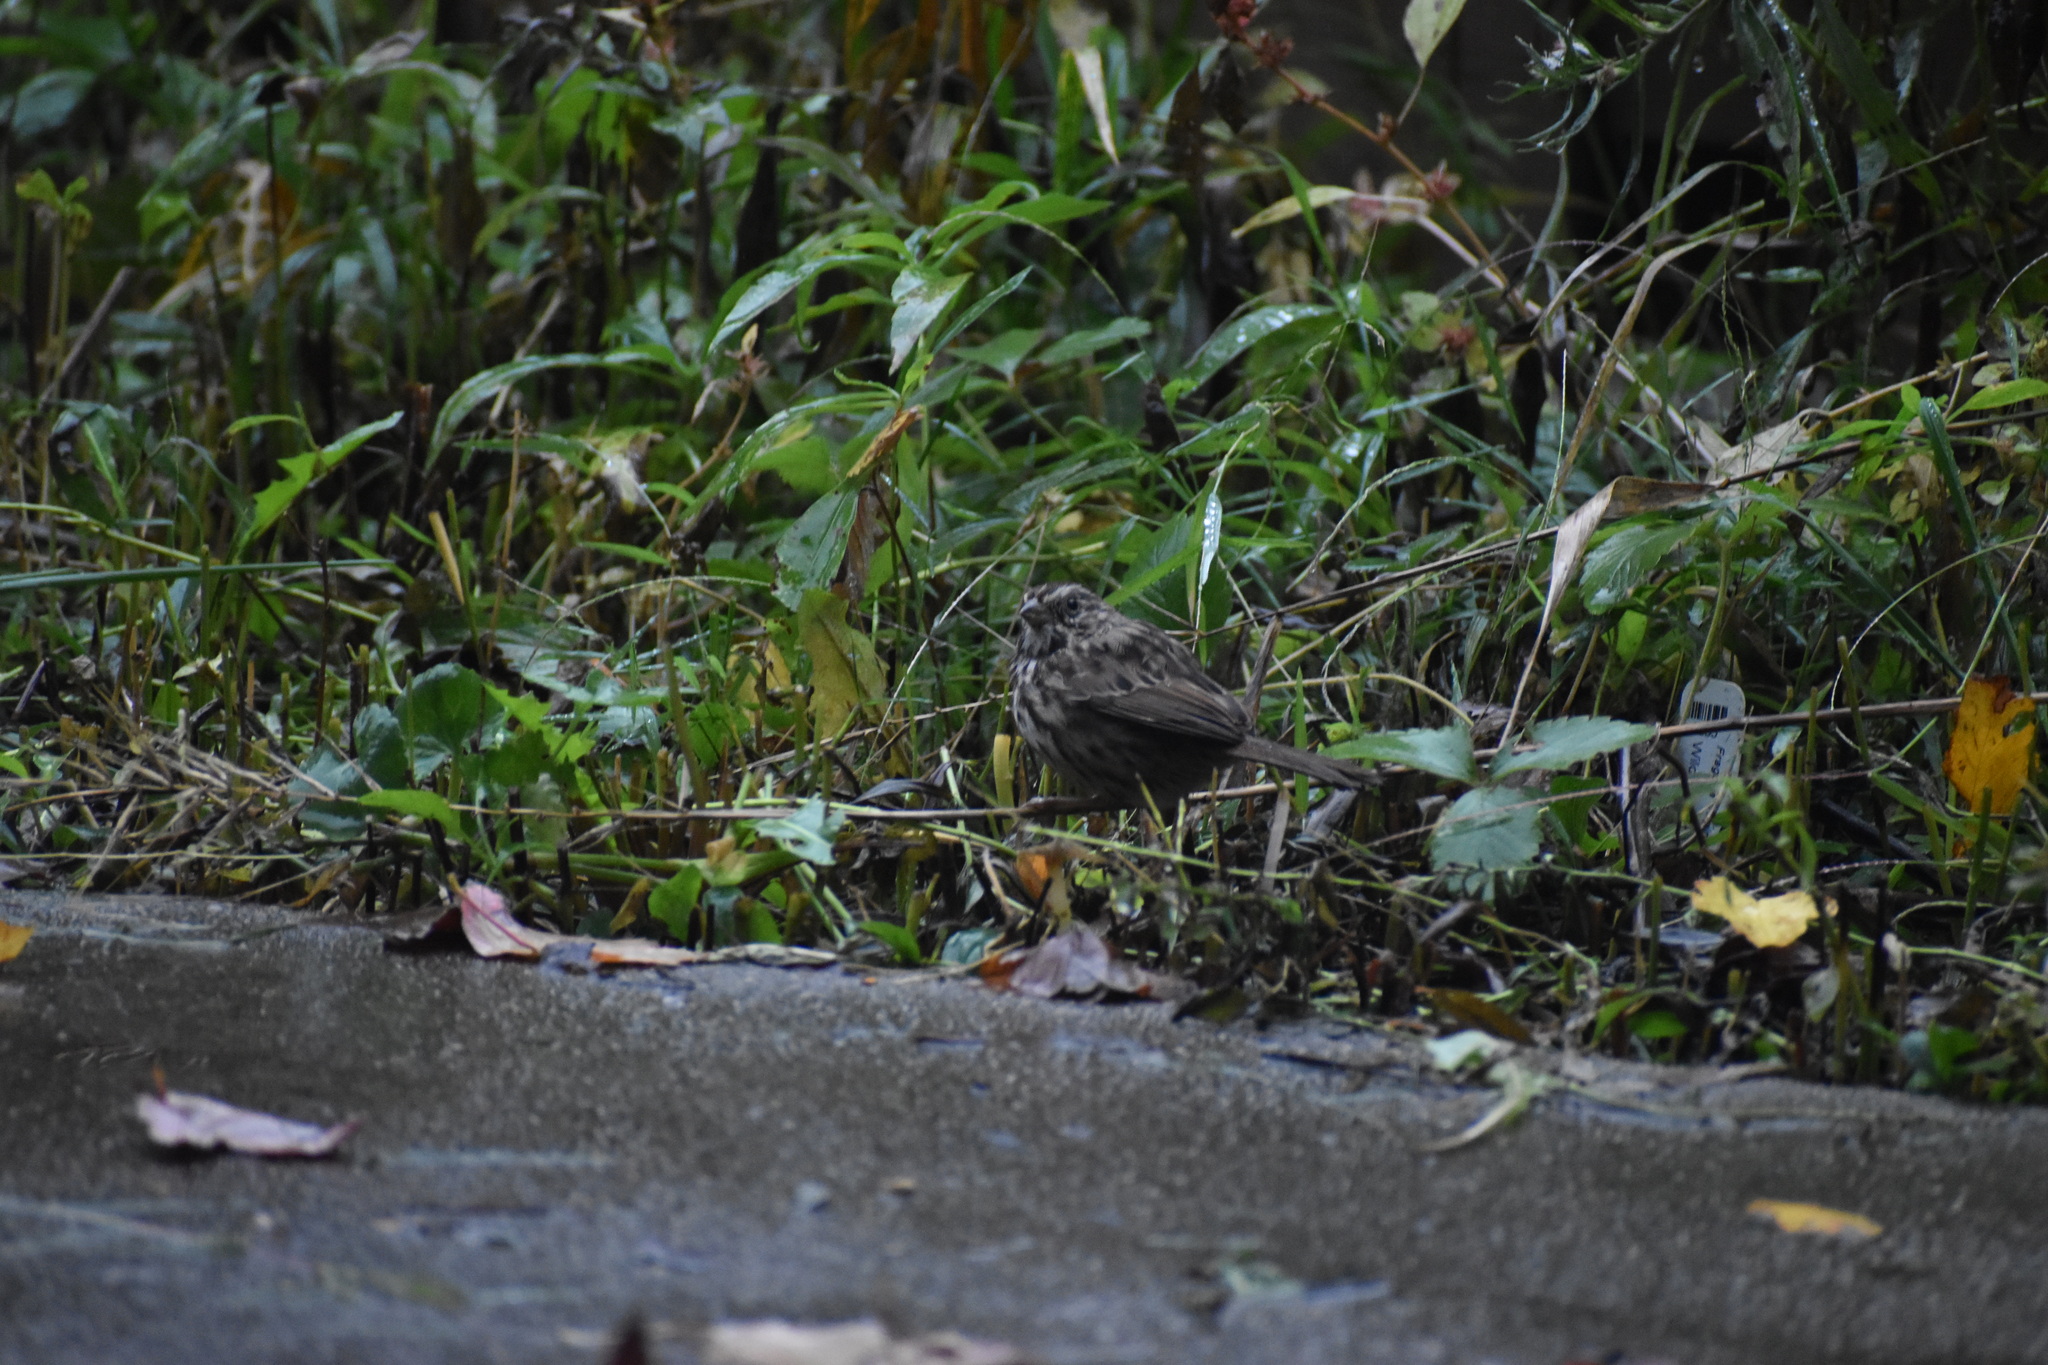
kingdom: Animalia
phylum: Chordata
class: Aves
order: Passeriformes
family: Passerellidae
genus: Melospiza
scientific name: Melospiza melodia
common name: Song sparrow
